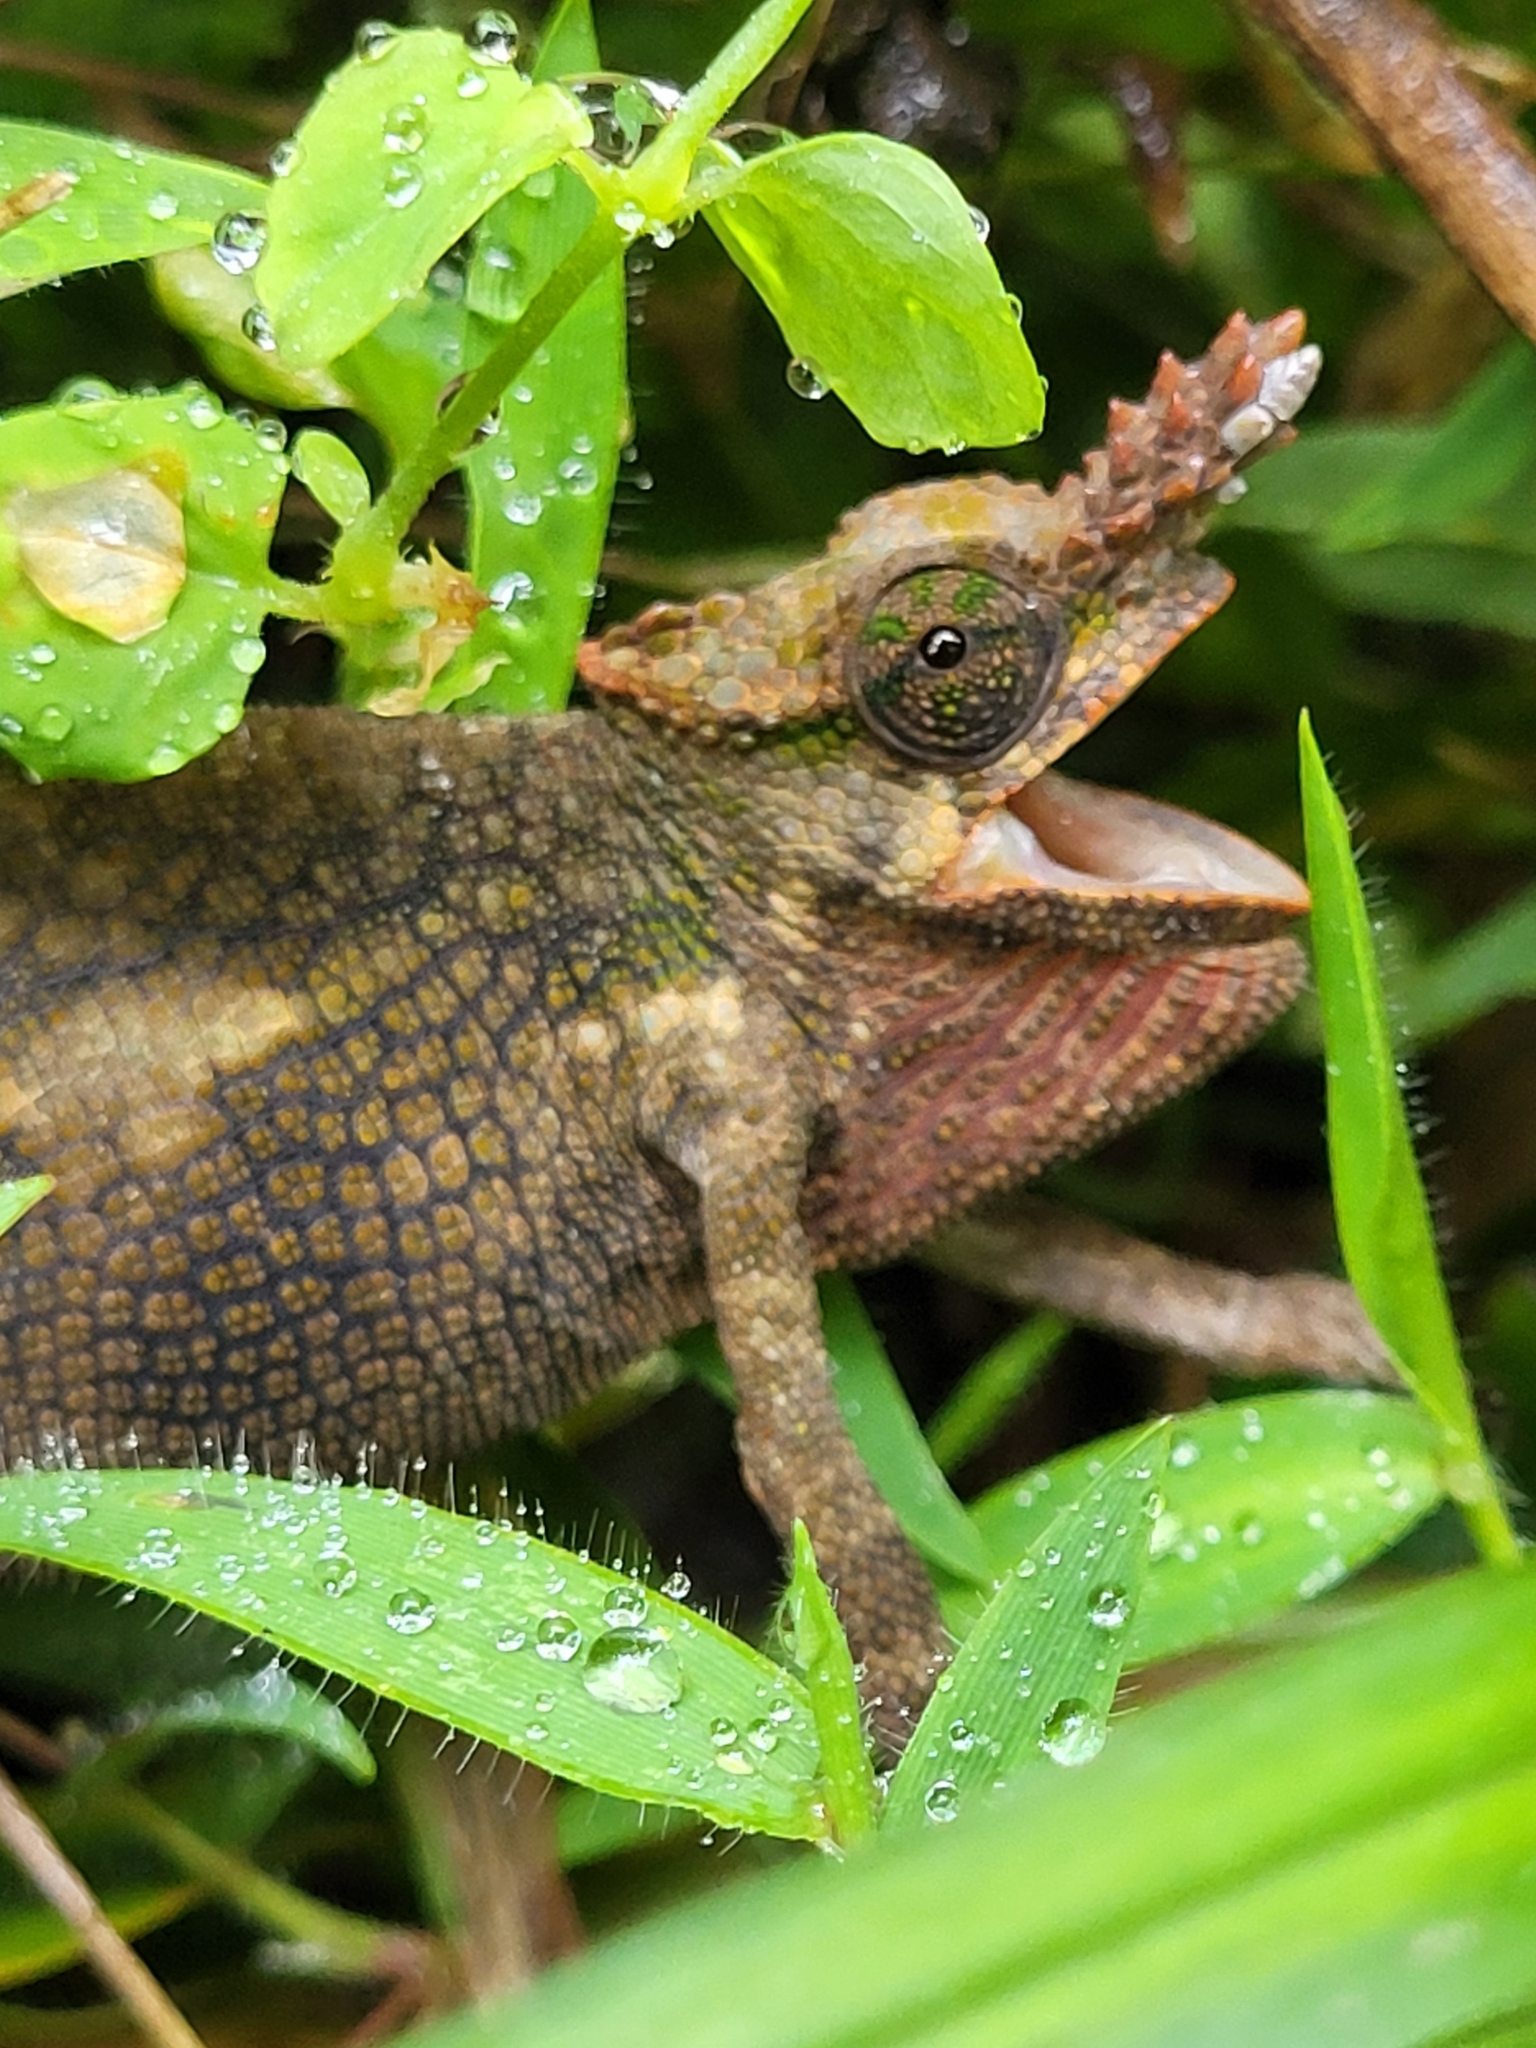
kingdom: Animalia
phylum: Chordata
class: Squamata
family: Chamaeleonidae
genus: Kinyongia
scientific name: Kinyongia tavetana
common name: Kilimanjaro blade-horned chameleon
